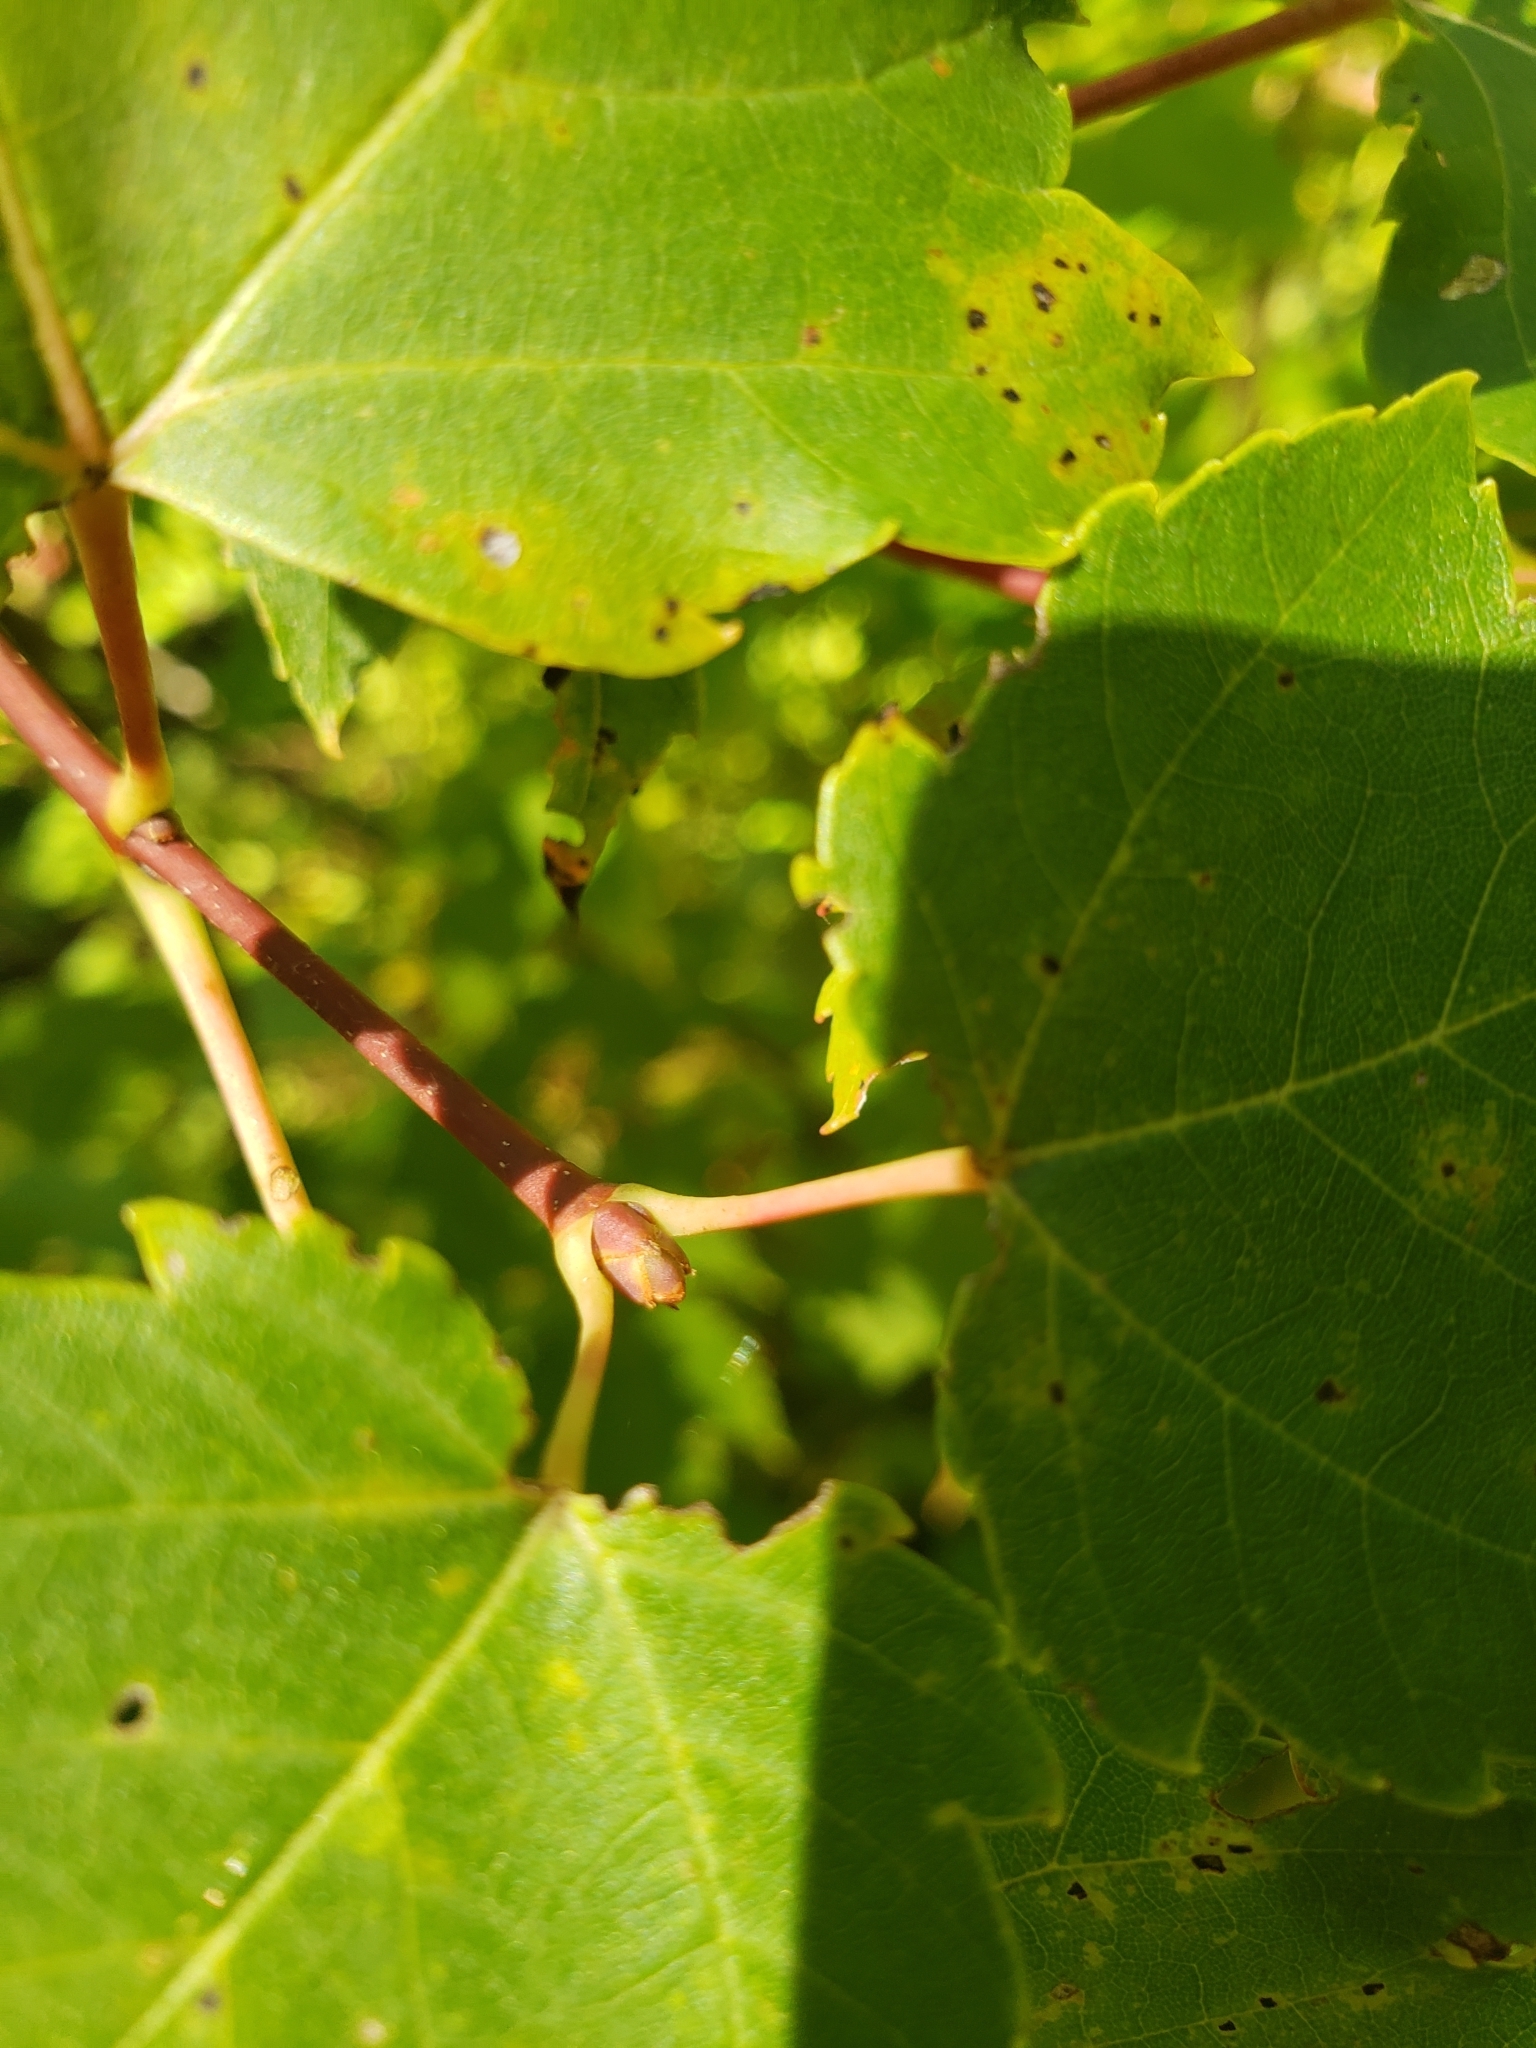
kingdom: Plantae
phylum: Tracheophyta
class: Magnoliopsida
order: Sapindales
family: Sapindaceae
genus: Acer
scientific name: Acer rubrum
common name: Red maple
